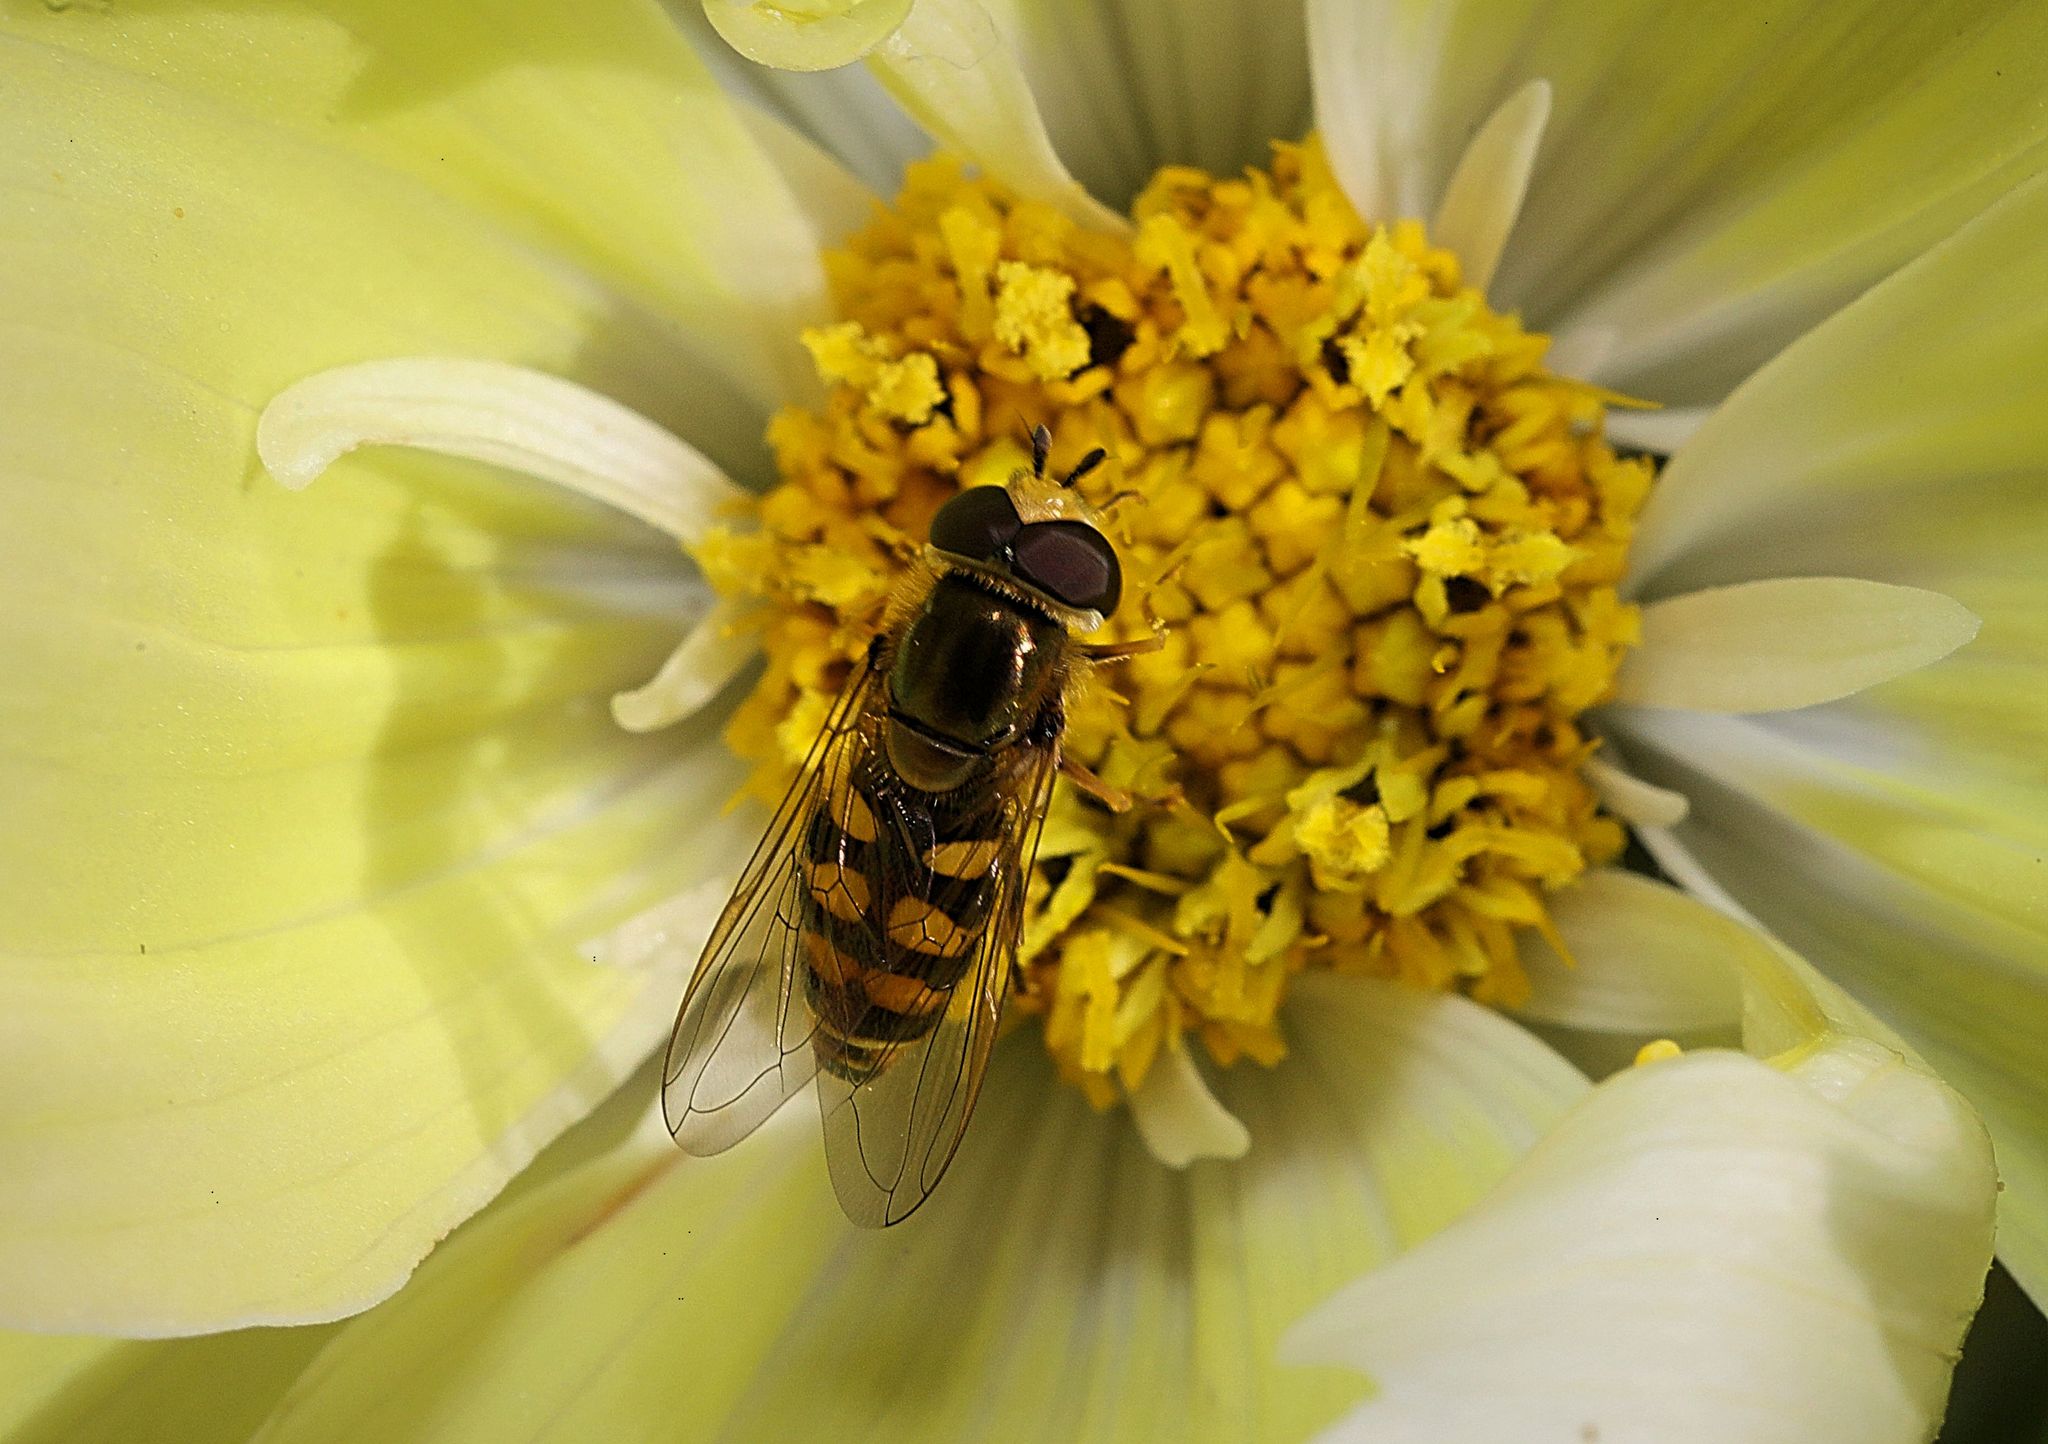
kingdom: Animalia
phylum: Arthropoda
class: Insecta
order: Diptera
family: Syrphidae
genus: Eupeodes
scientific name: Eupeodes corollae
